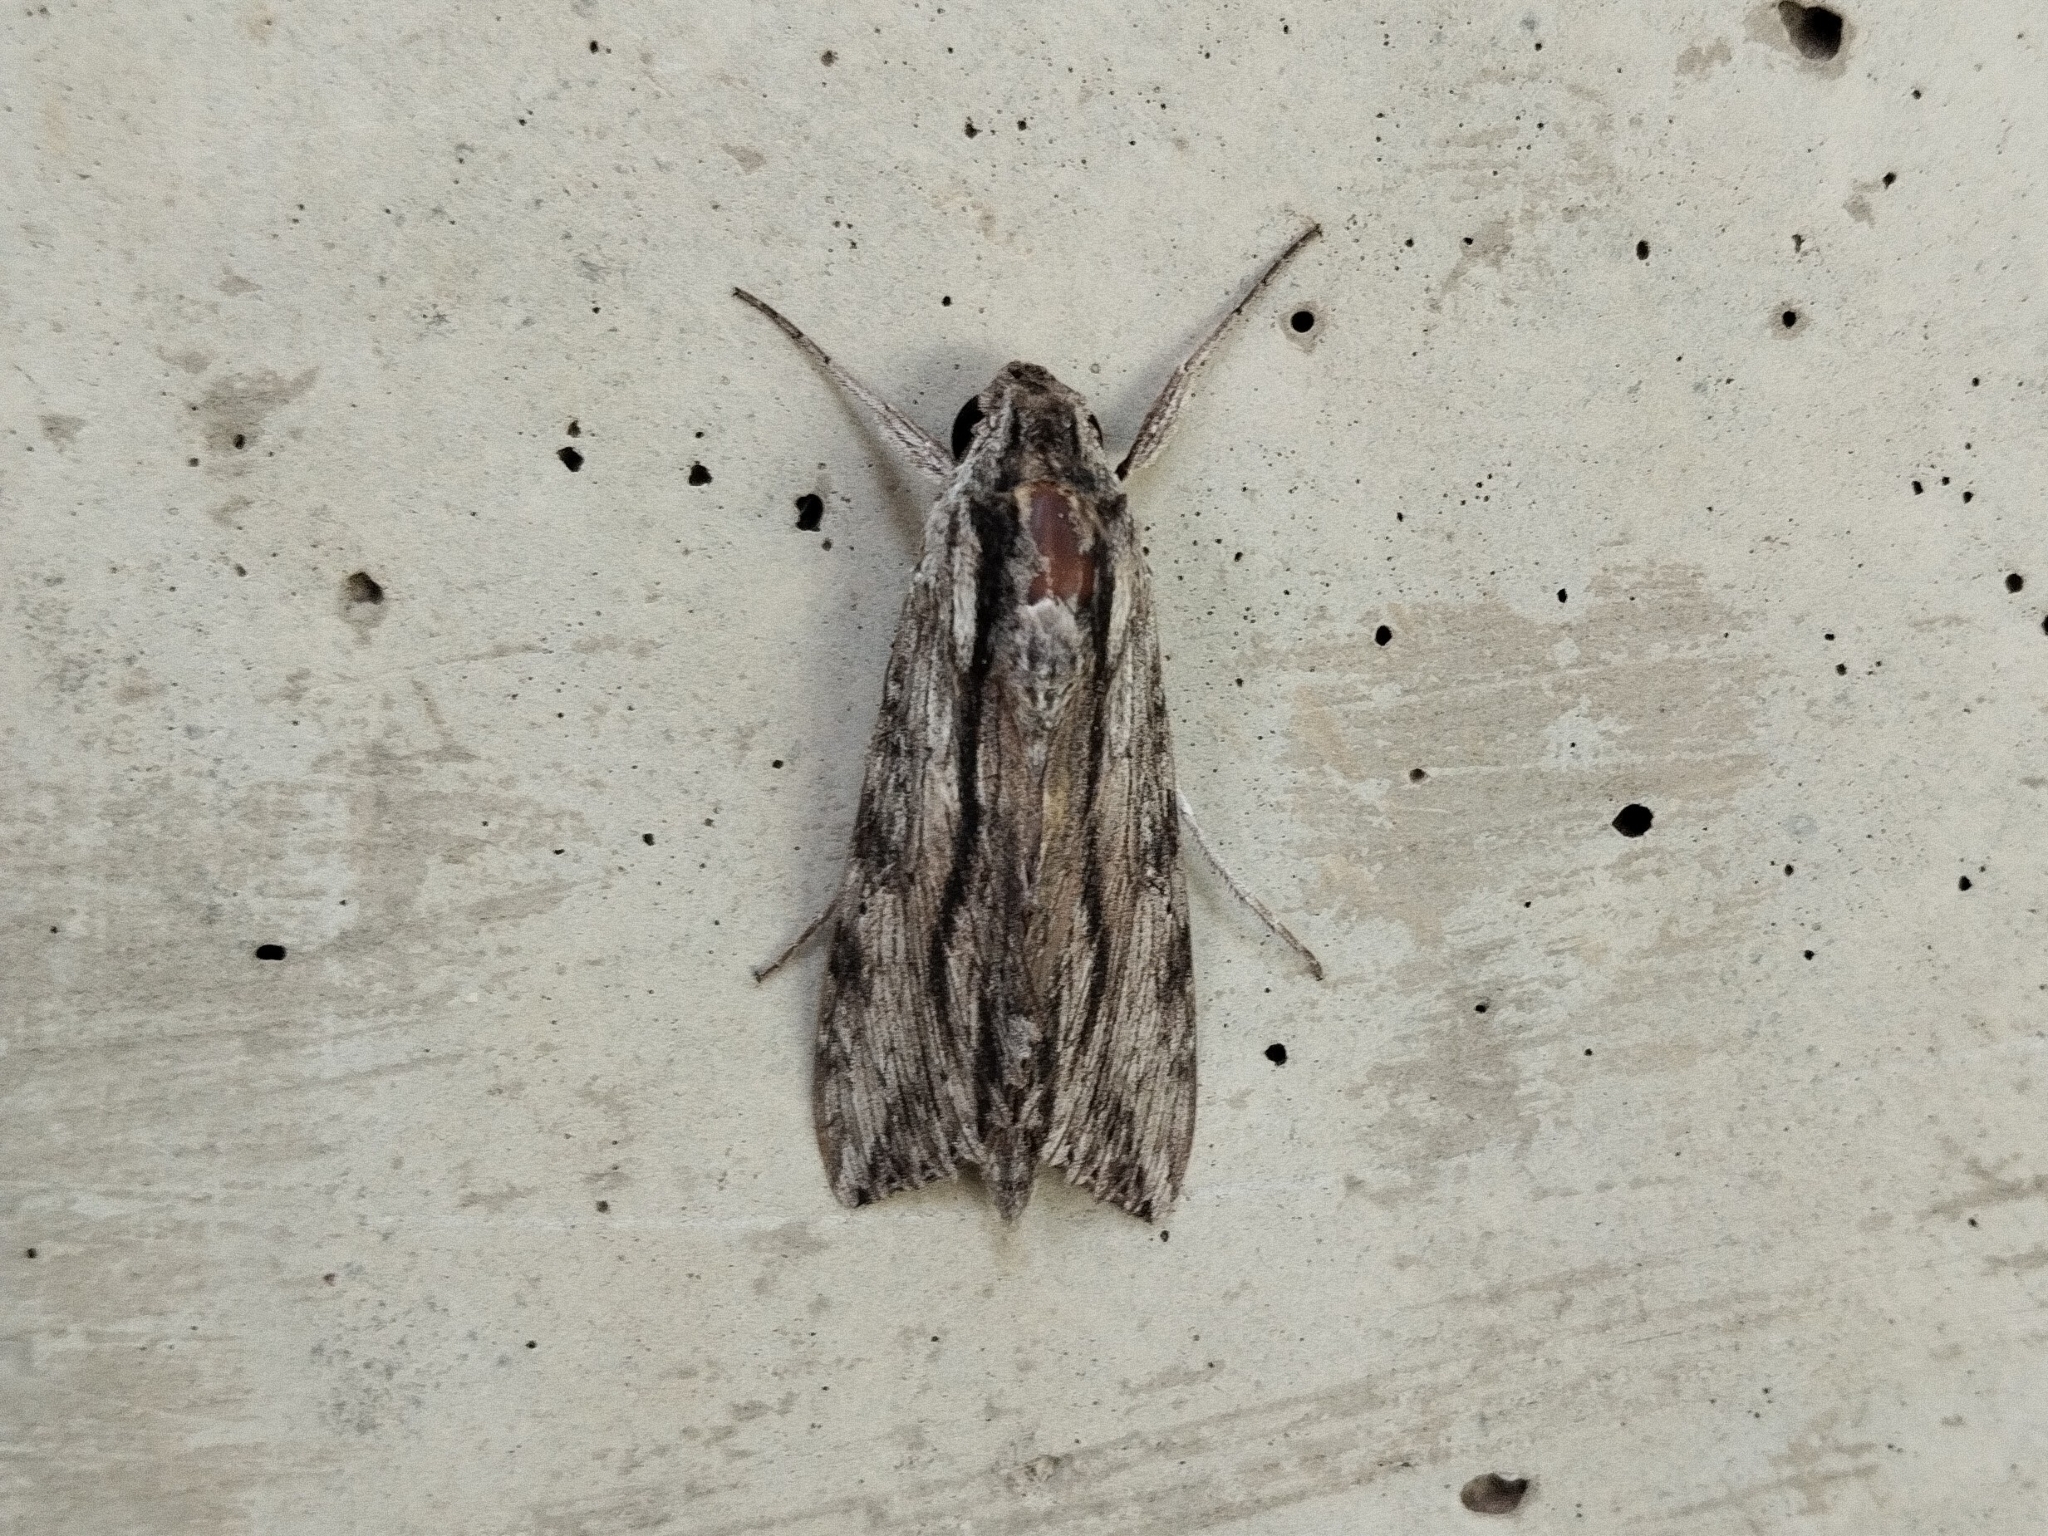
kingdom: Animalia
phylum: Arthropoda
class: Insecta
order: Lepidoptera
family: Sphingidae
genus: Erinnyis
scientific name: Erinnyis obscura
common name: Obscure sphinx
